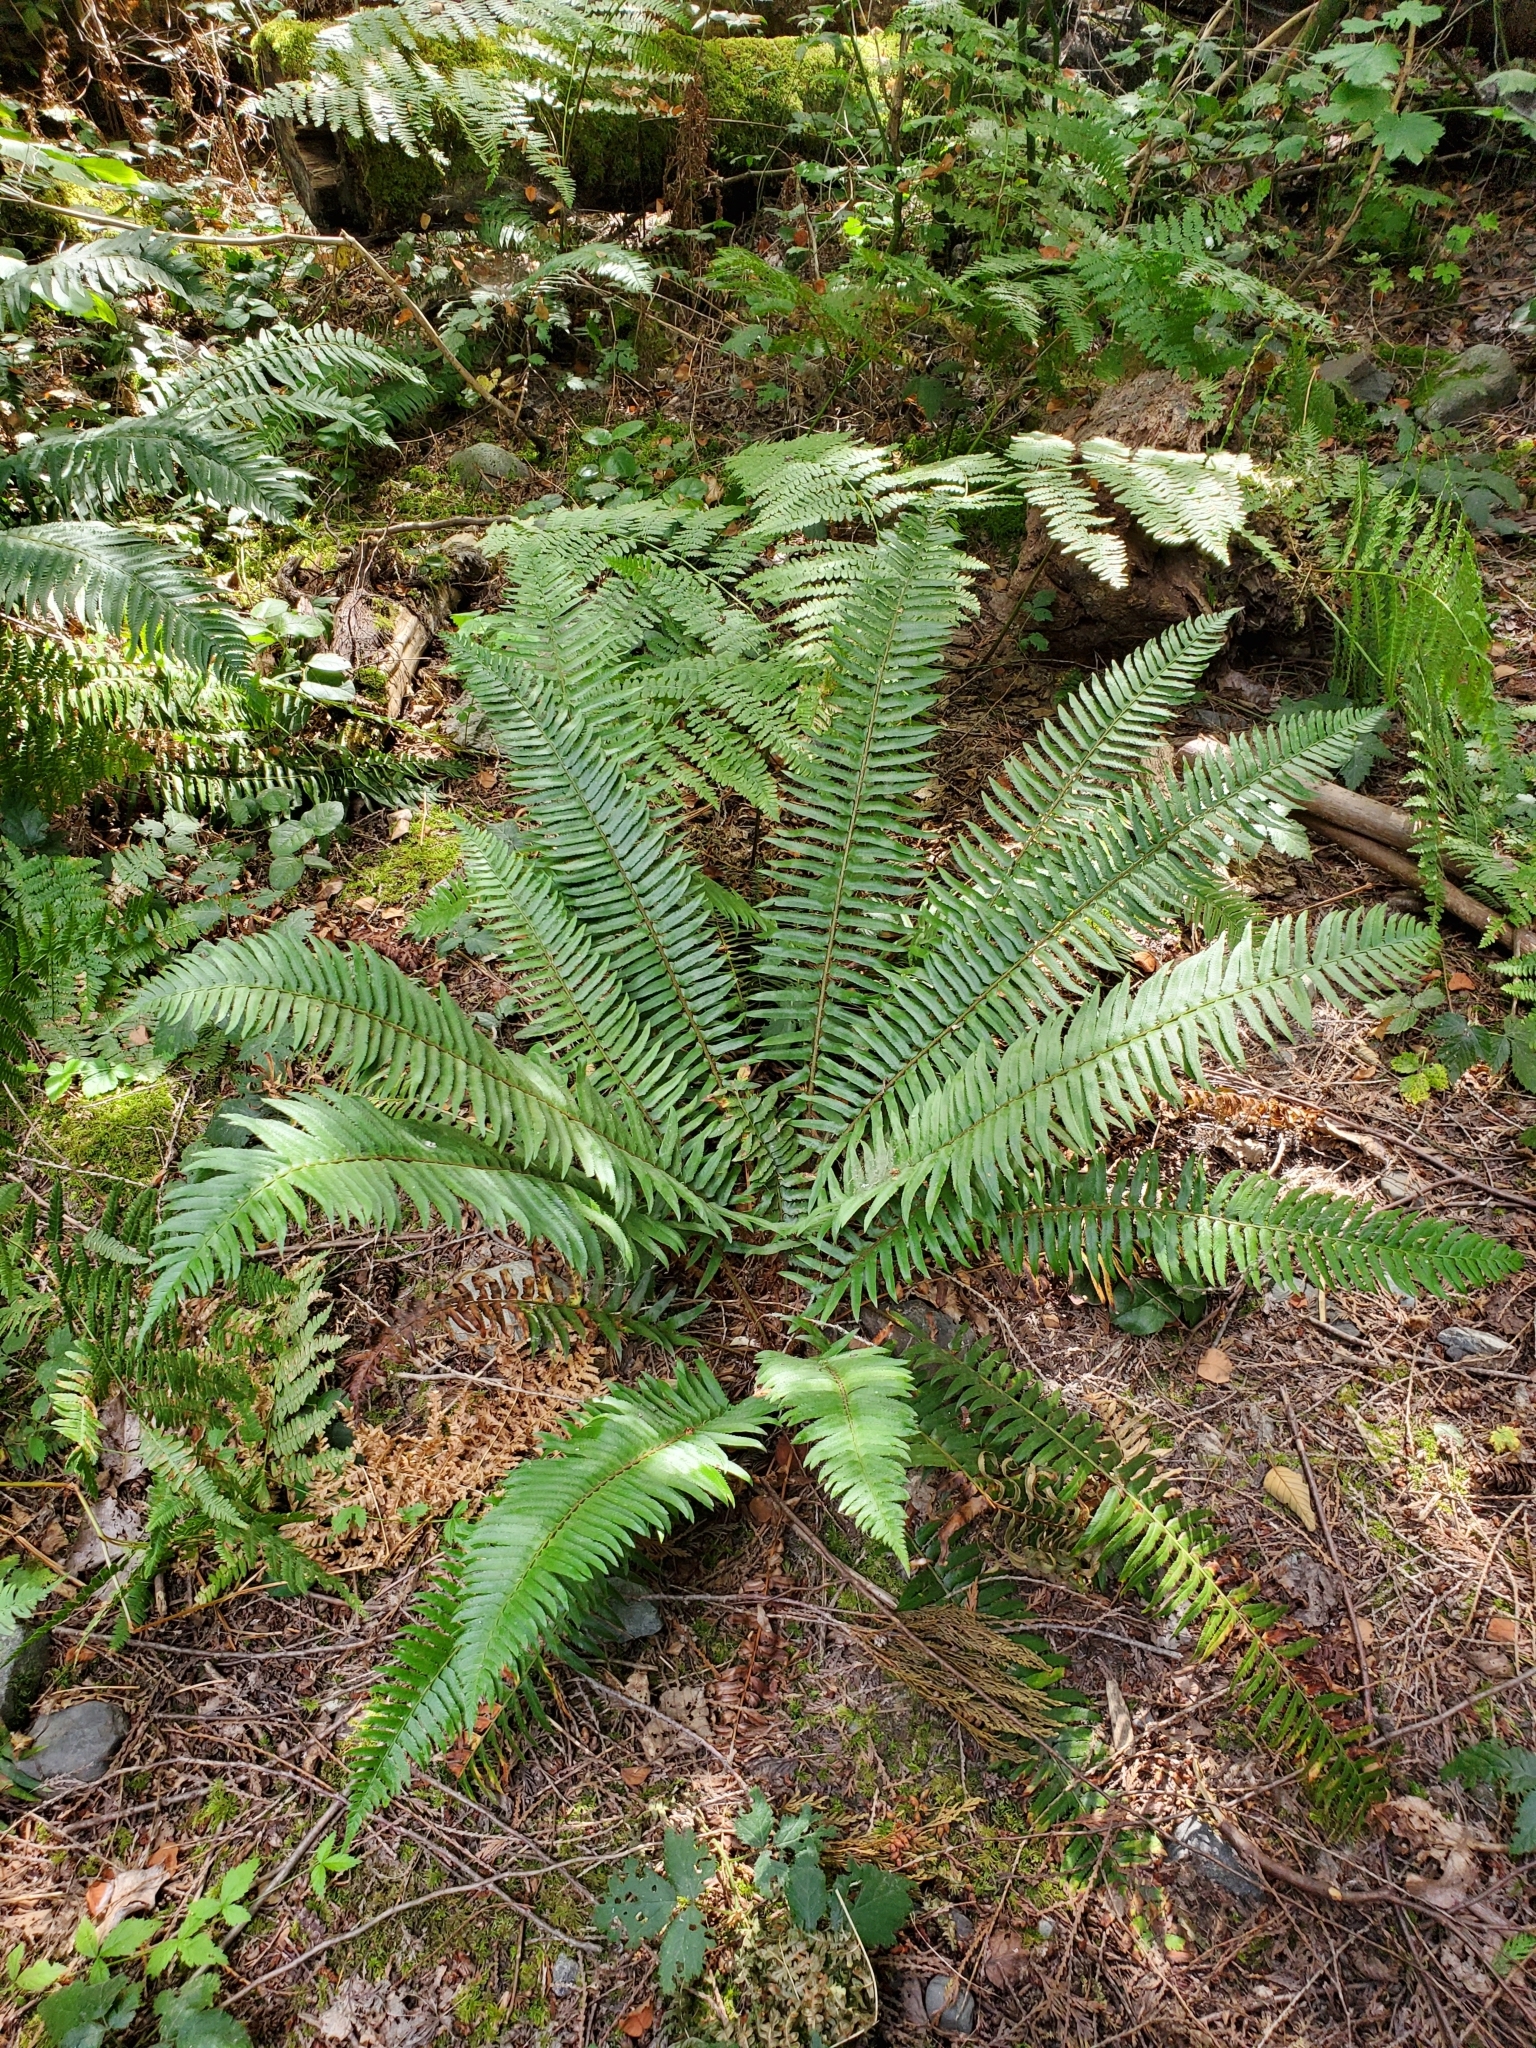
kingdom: Plantae
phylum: Tracheophyta
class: Polypodiopsida
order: Polypodiales
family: Dryopteridaceae
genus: Polystichum
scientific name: Polystichum munitum
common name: Western sword-fern
